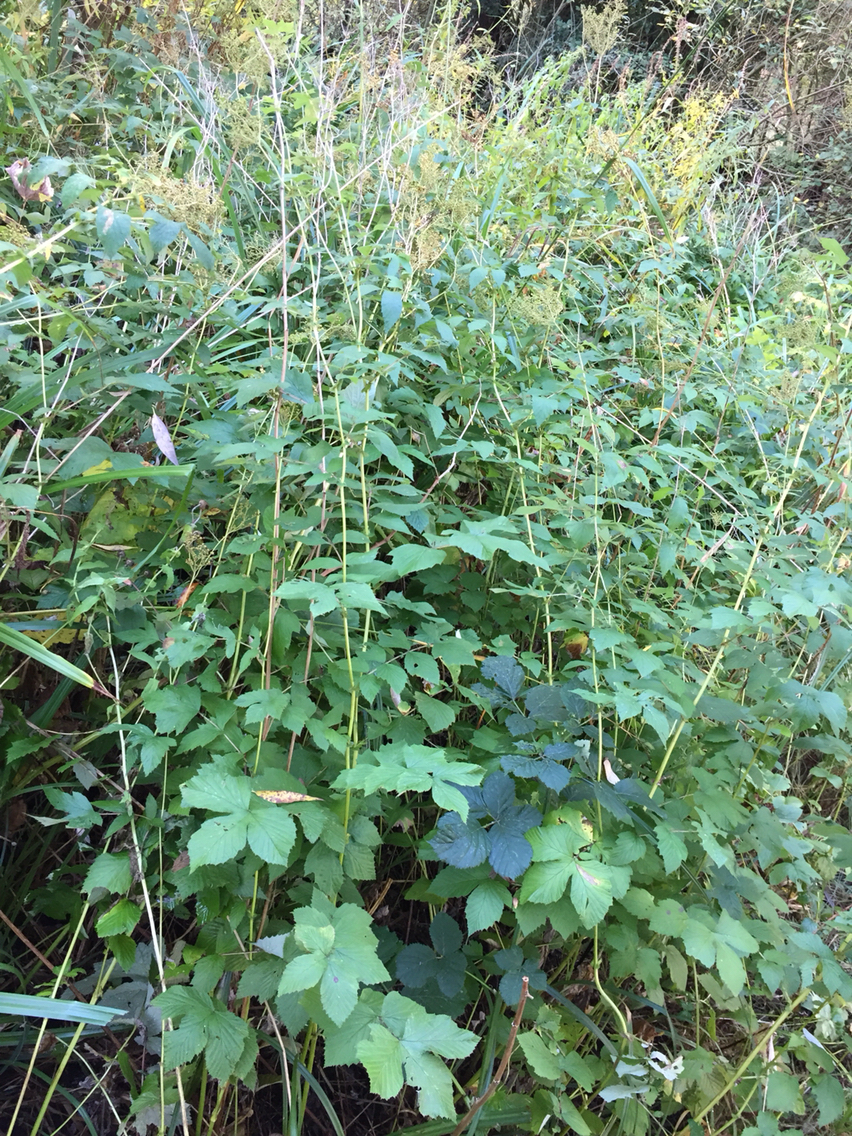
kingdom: Plantae
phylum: Tracheophyta
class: Magnoliopsida
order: Rosales
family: Rosaceae
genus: Filipendula
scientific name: Filipendula ulmaria
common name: Meadowsweet
